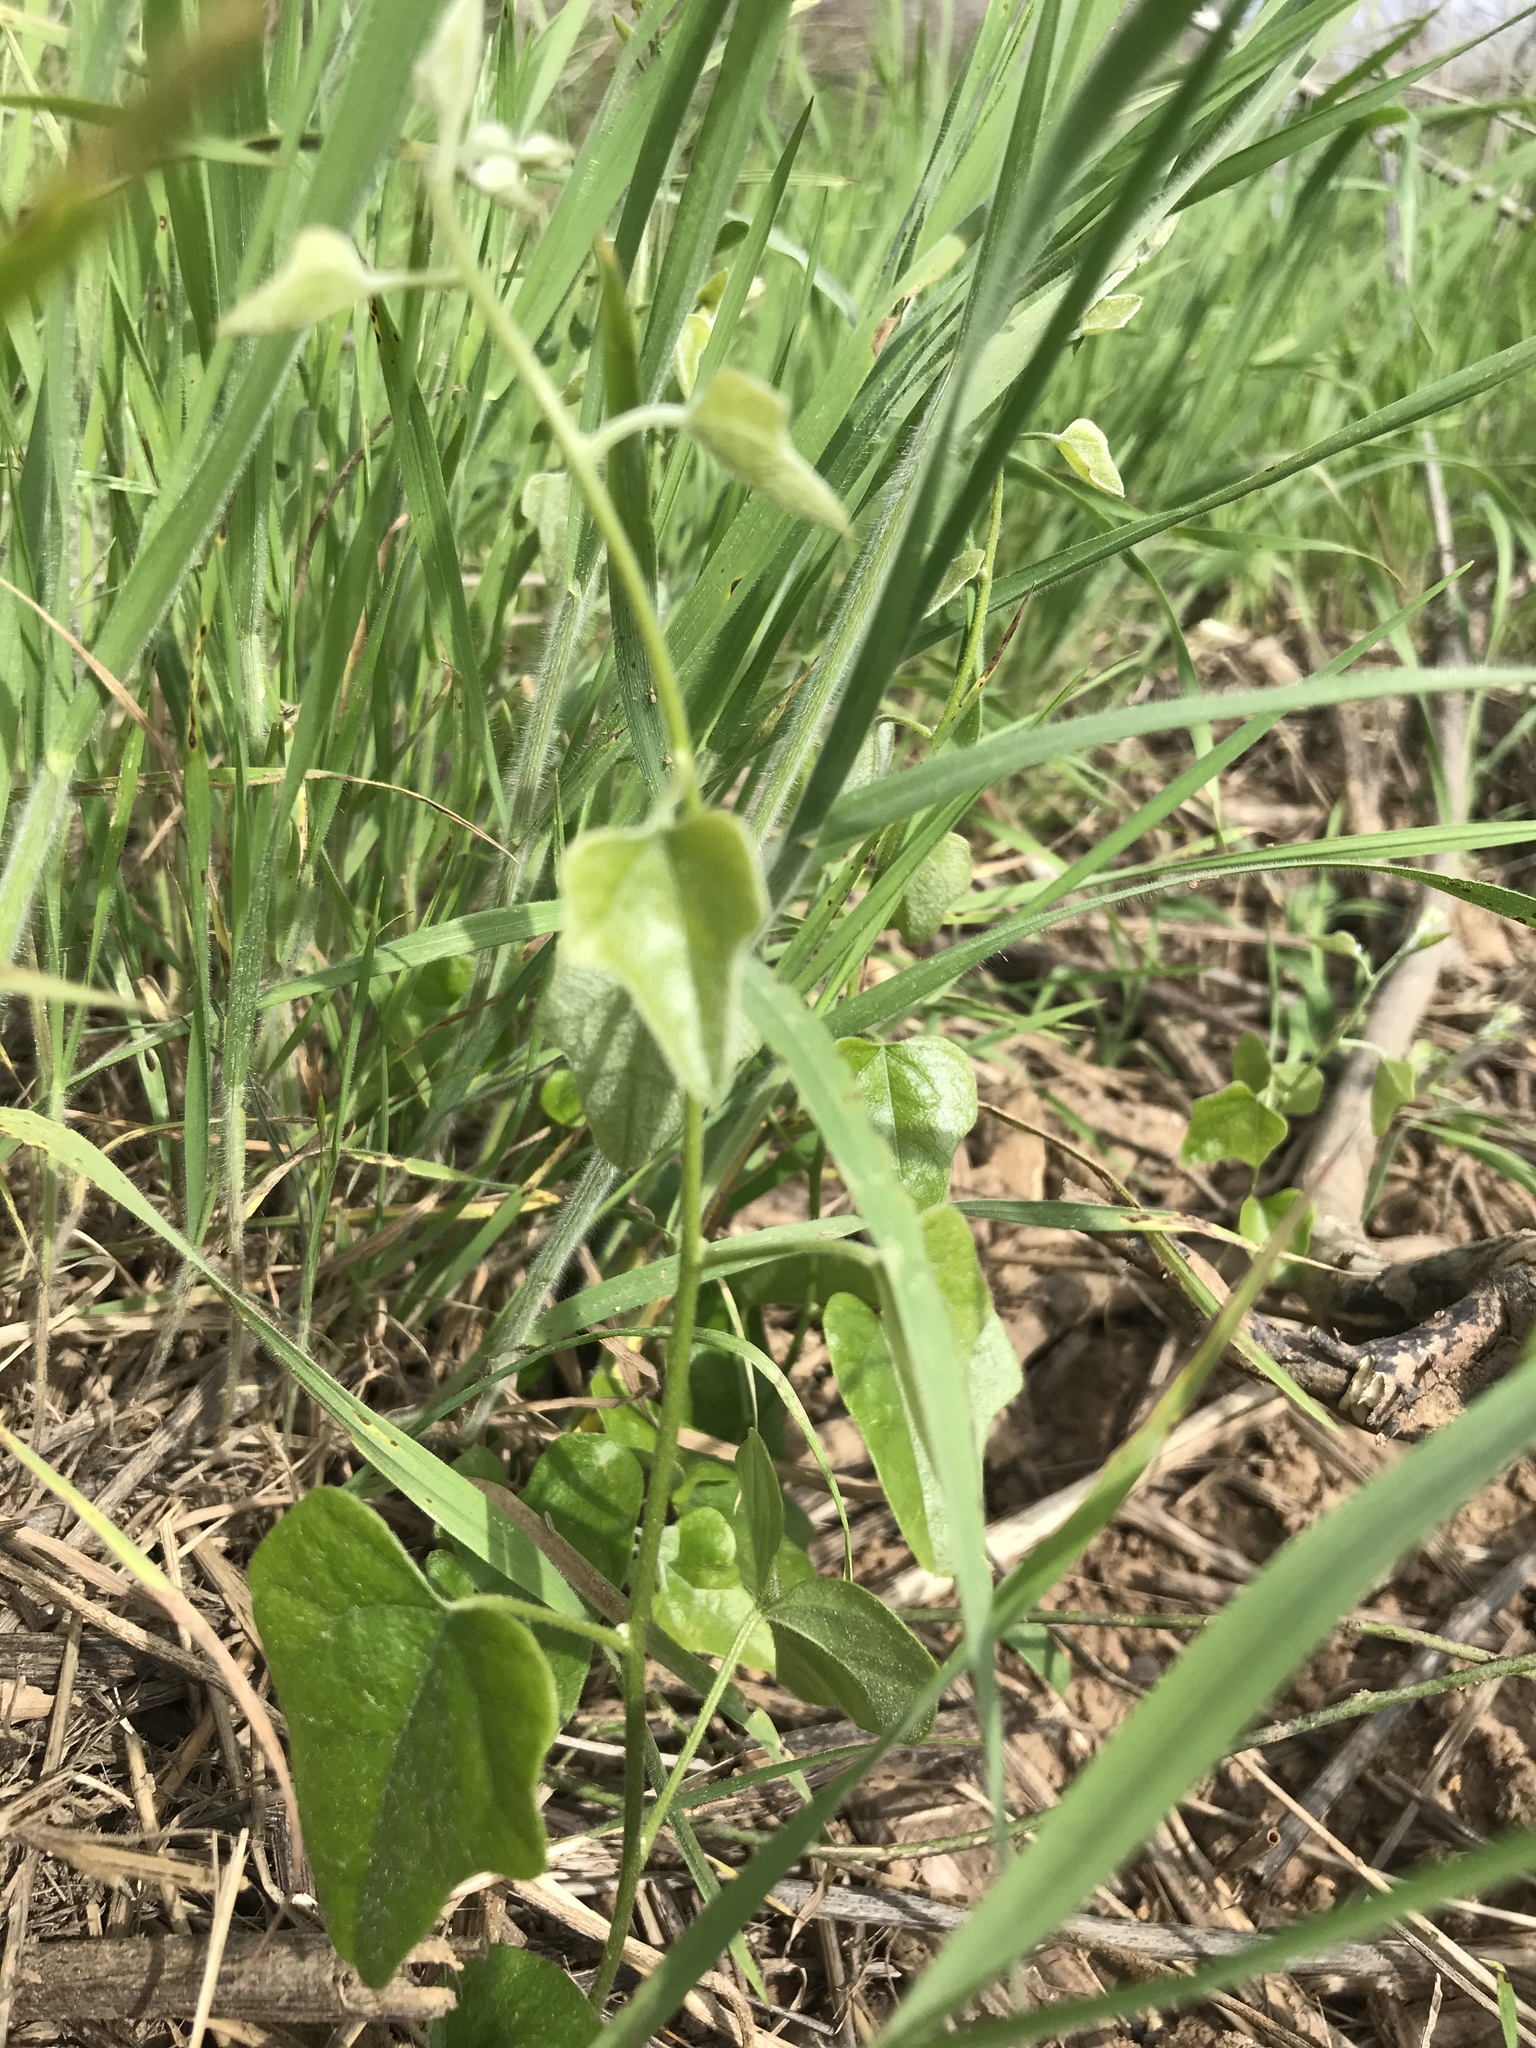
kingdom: Plantae
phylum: Tracheophyta
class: Magnoliopsida
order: Ranunculales
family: Menispermaceae
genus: Cocculus
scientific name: Cocculus carolinus
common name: Carolina moonseed
